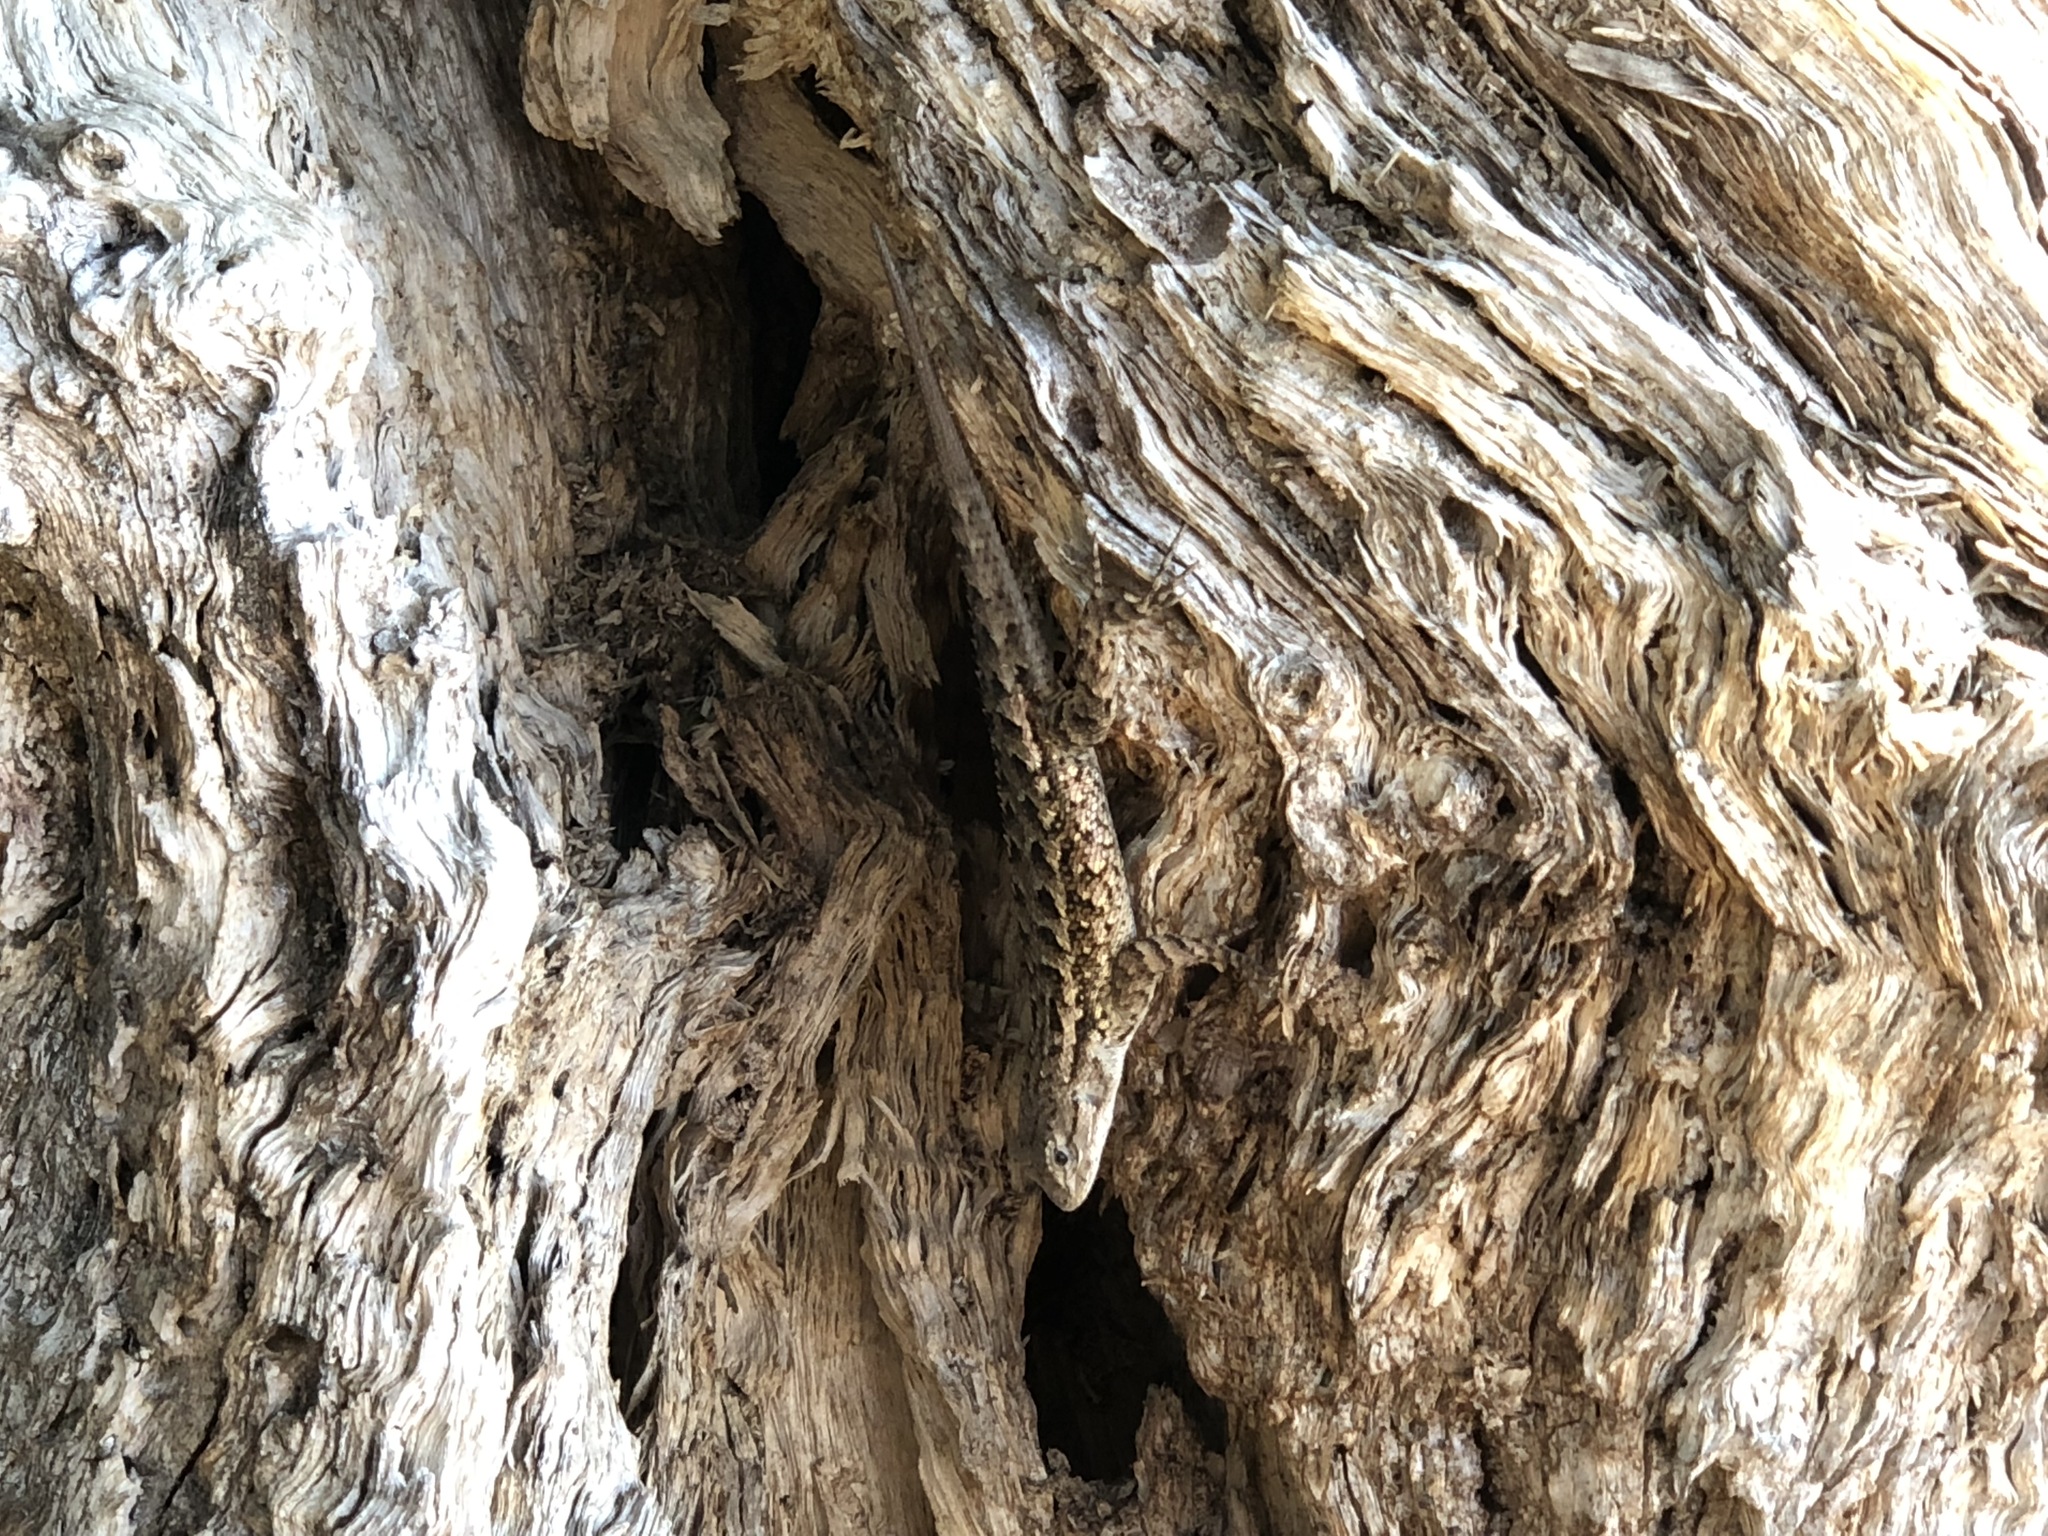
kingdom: Animalia
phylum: Chordata
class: Squamata
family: Phrynosomatidae
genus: Sceloporus
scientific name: Sceloporus occidentalis
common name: Western fence lizard
